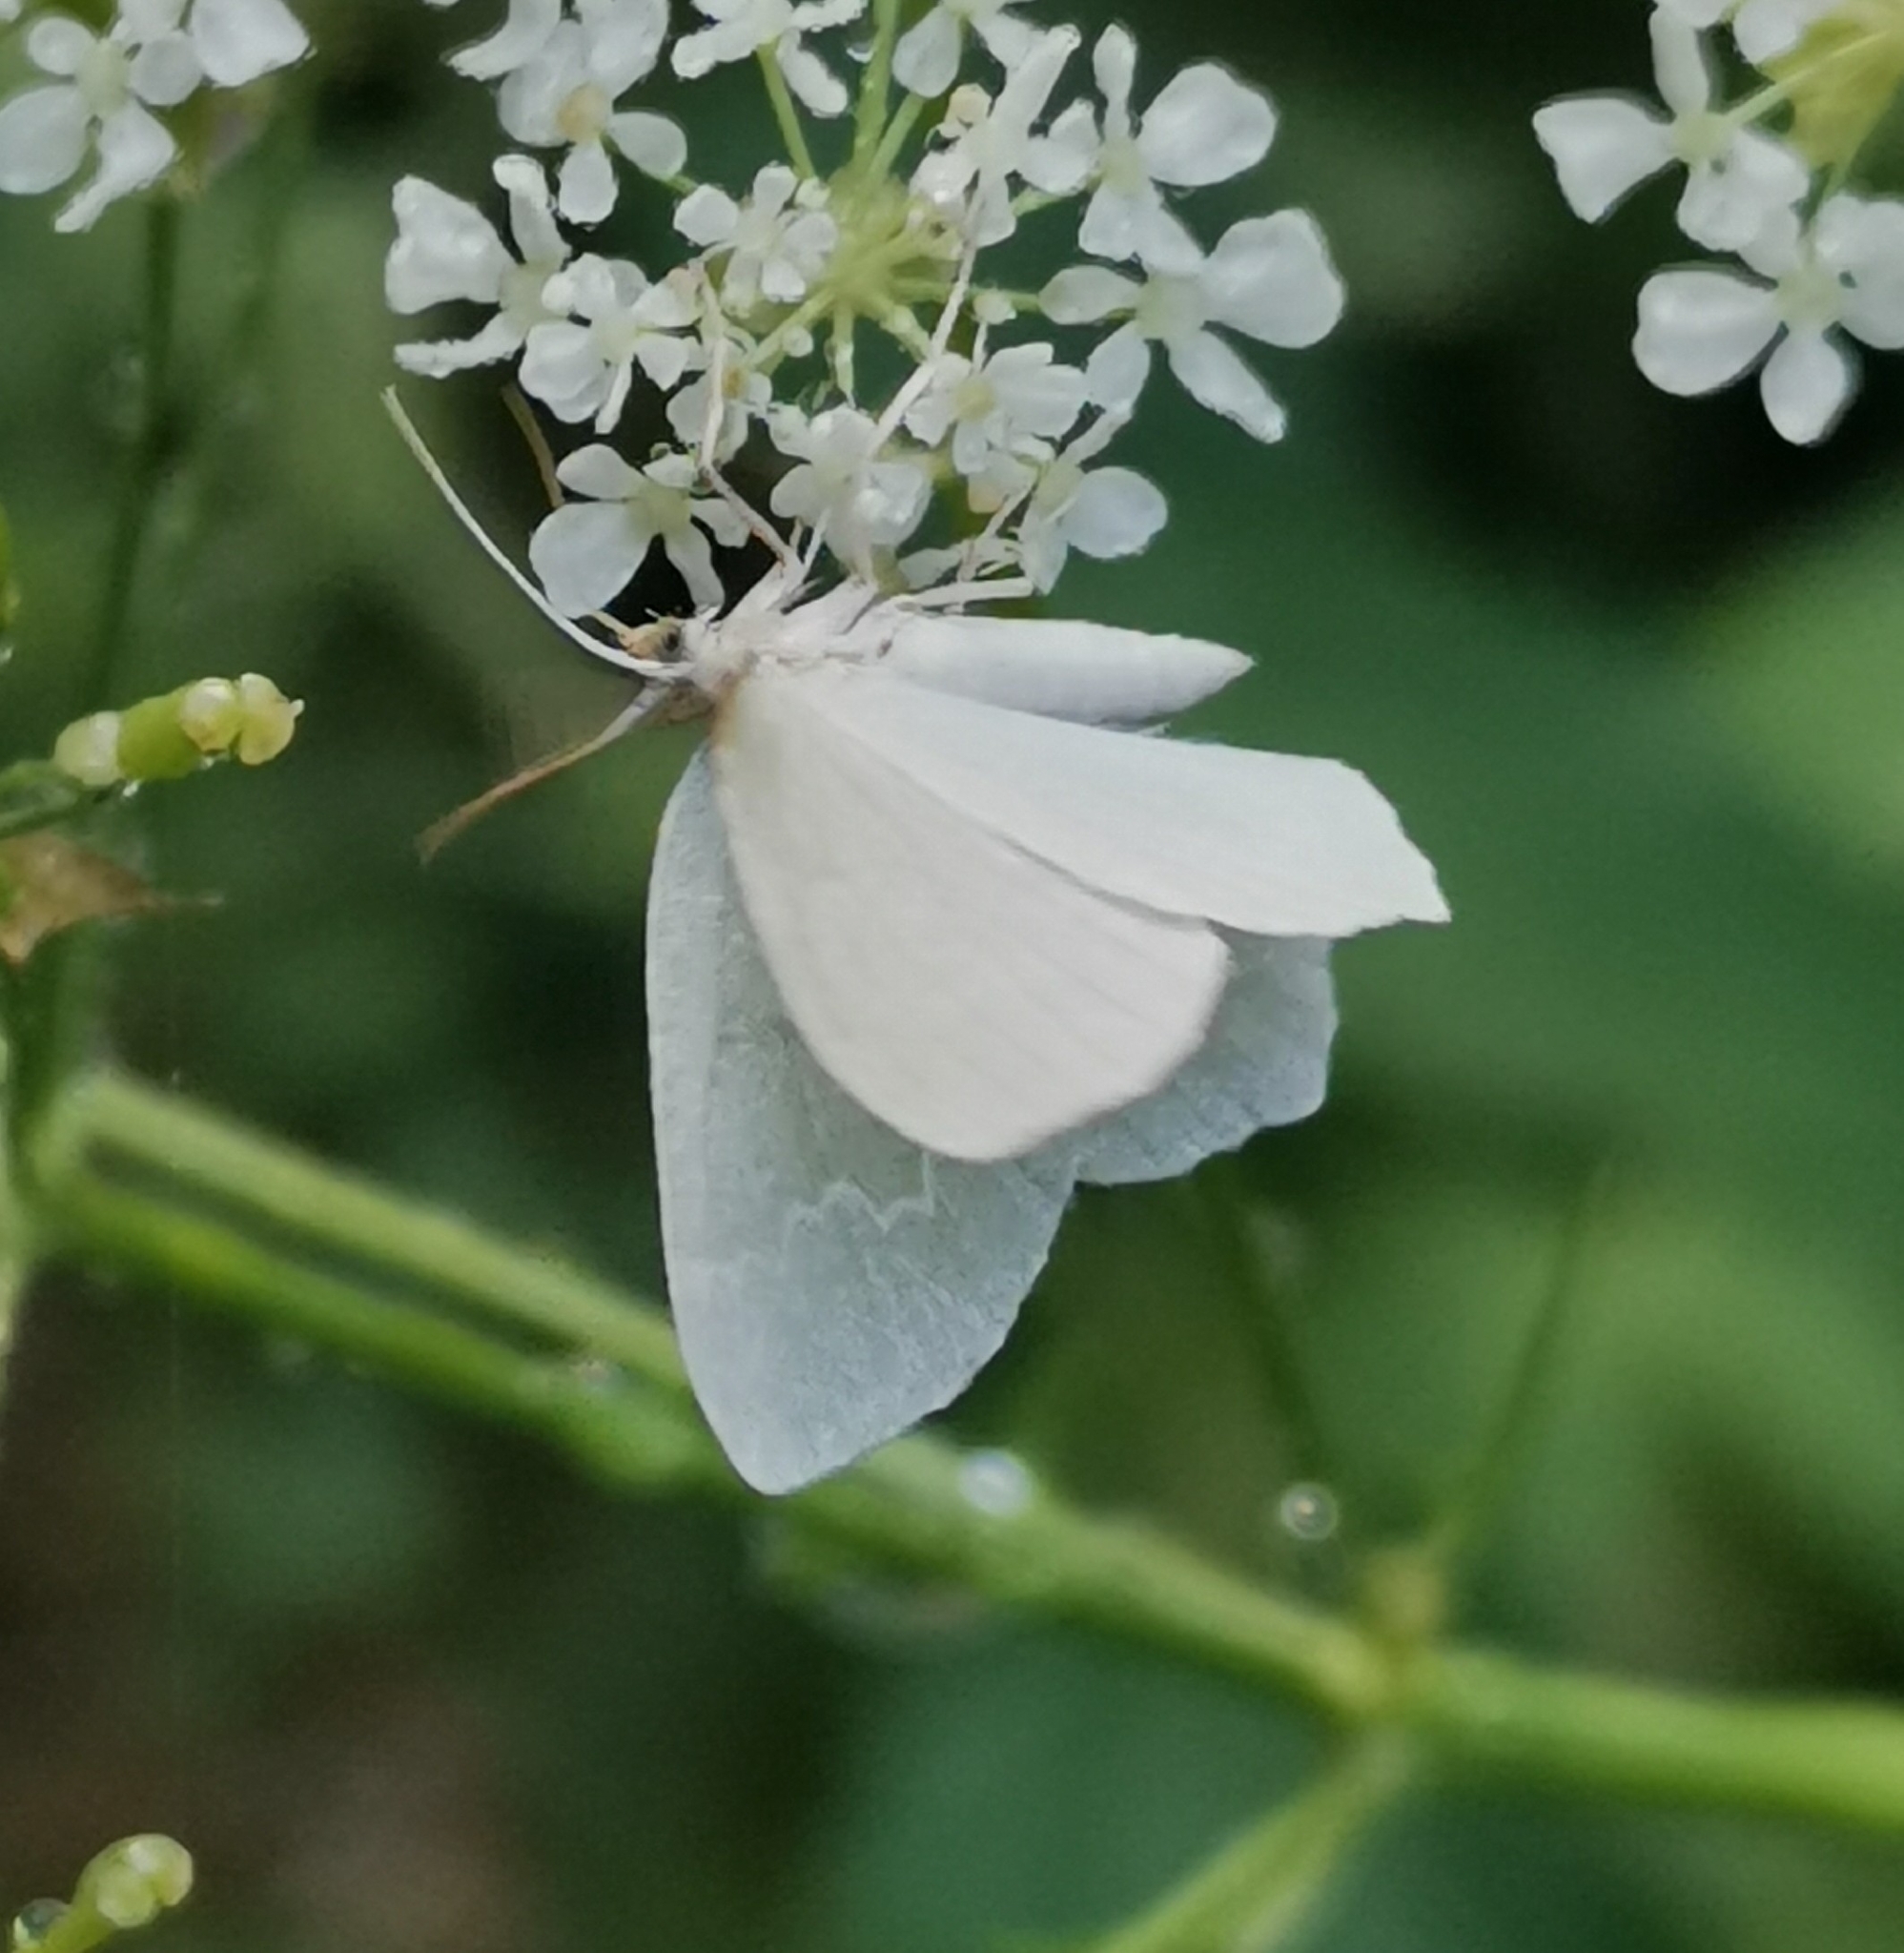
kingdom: Animalia
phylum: Arthropoda
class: Insecta
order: Lepidoptera
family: Geometridae
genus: Jodis
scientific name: Jodis putata
